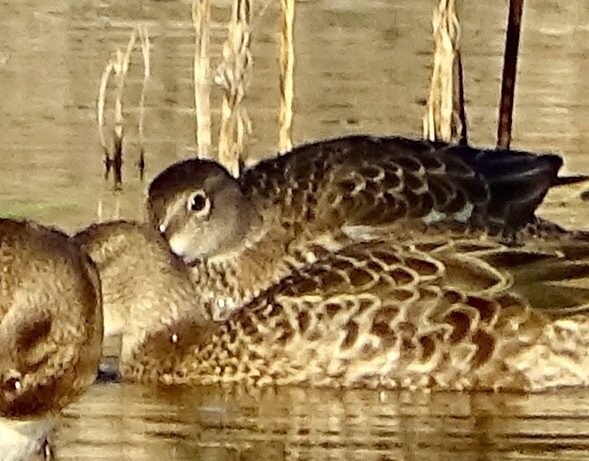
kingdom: Animalia
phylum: Chordata
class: Aves
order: Anseriformes
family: Anatidae
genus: Spatula
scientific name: Spatula discors
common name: Blue-winged teal
